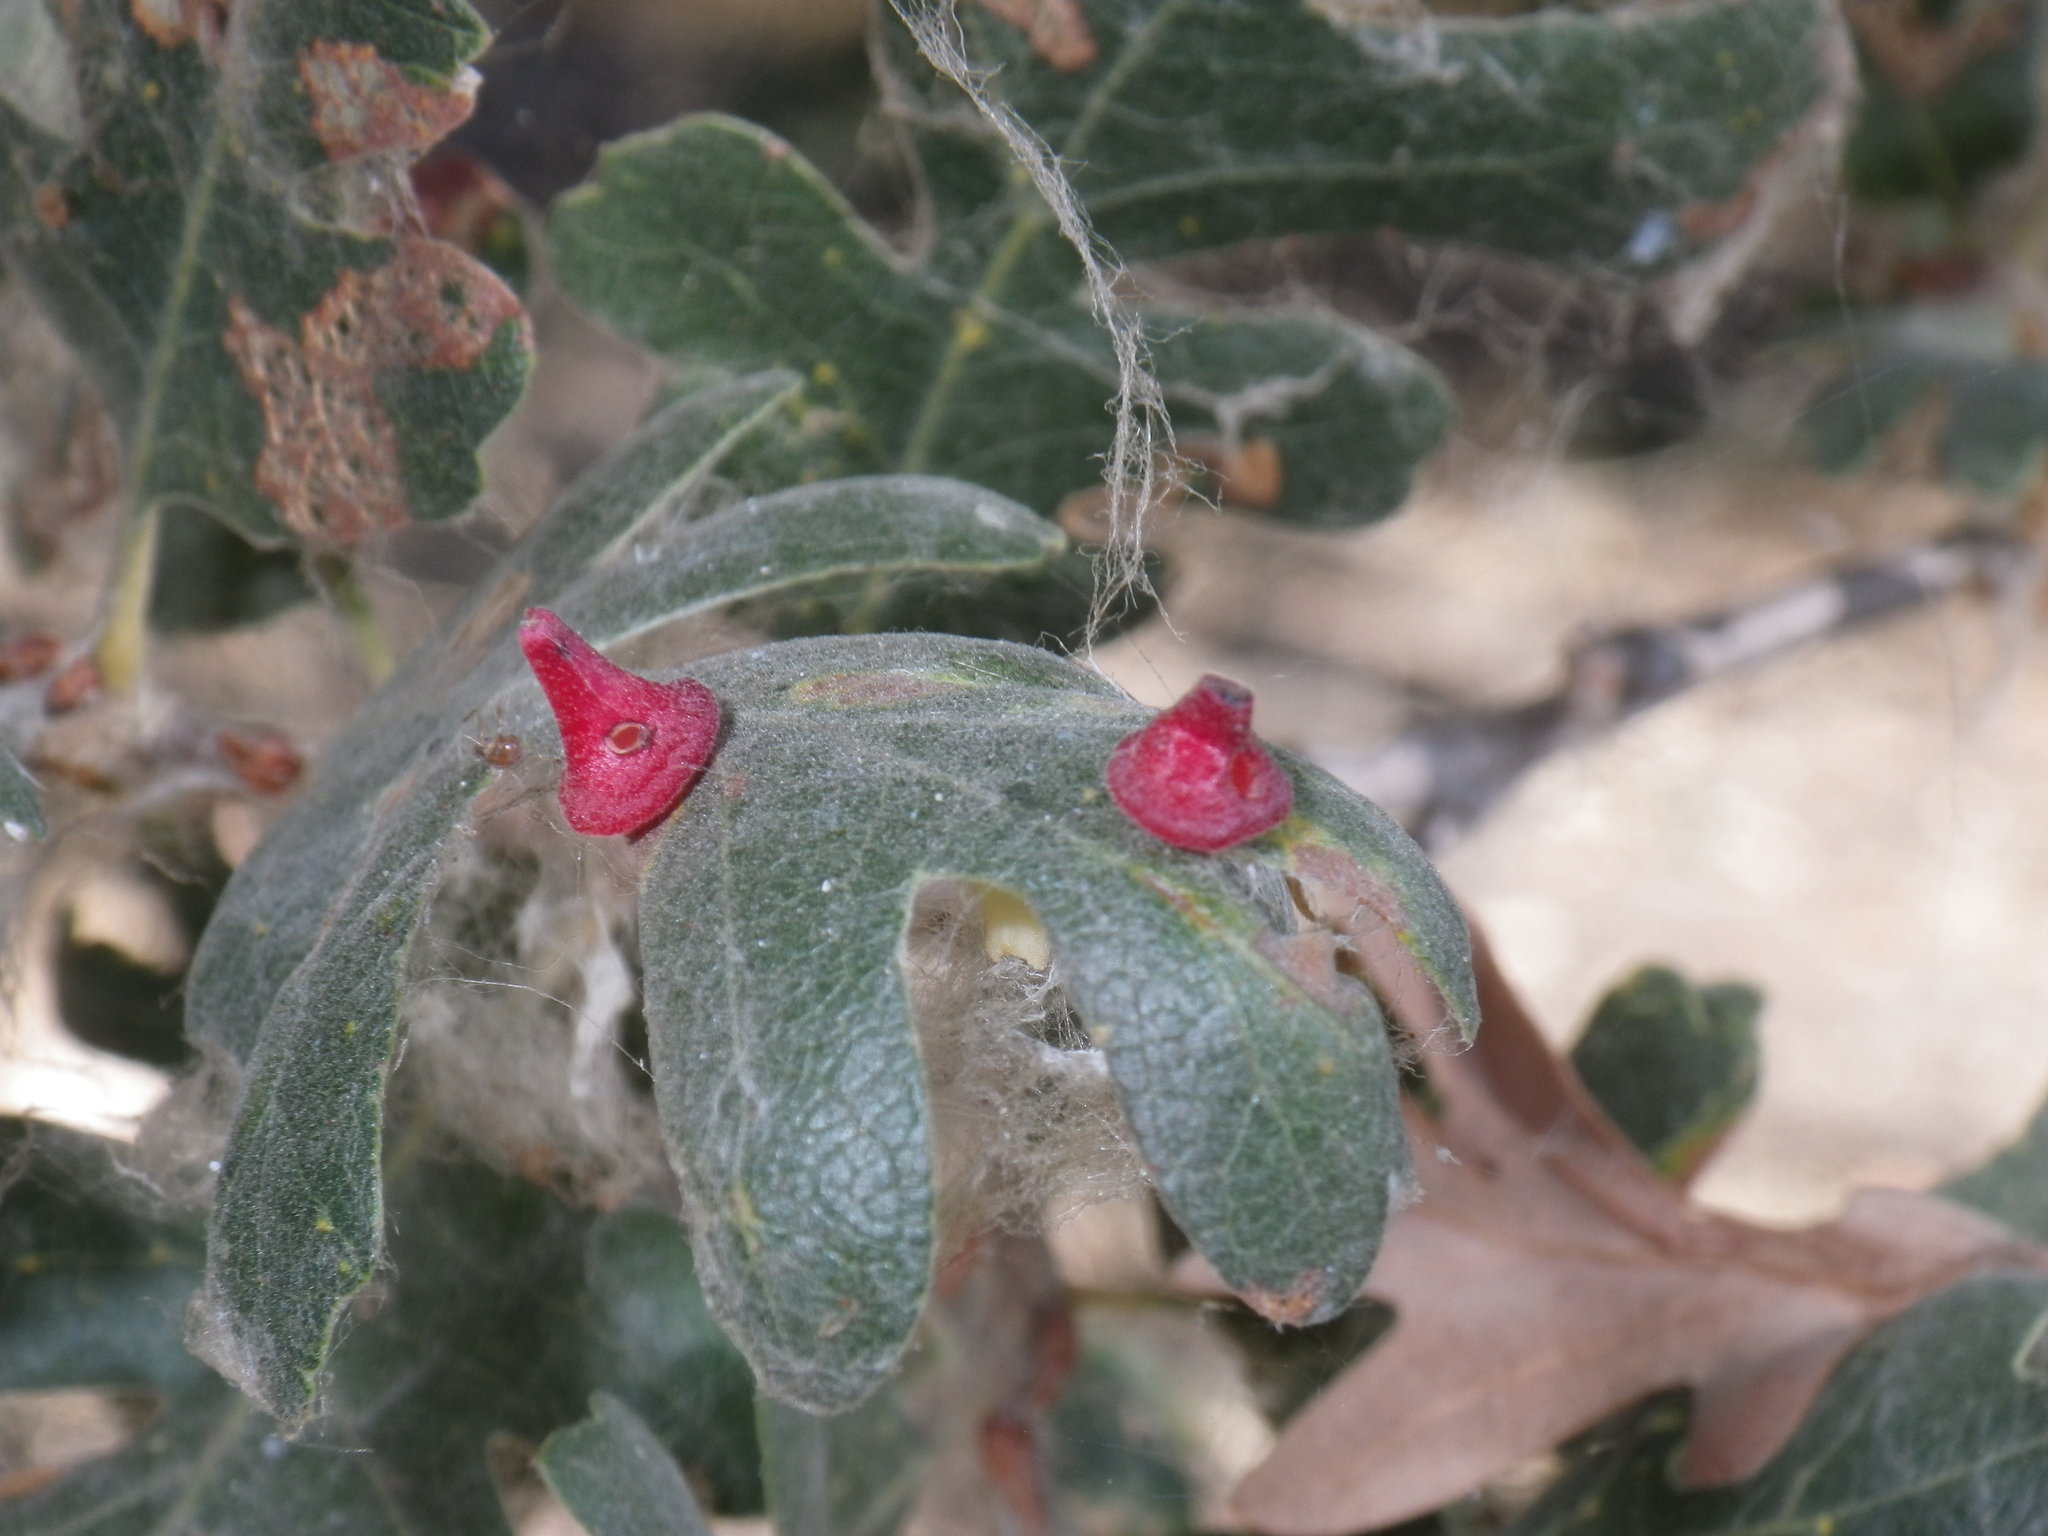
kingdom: Animalia
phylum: Arthropoda
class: Insecta
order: Hymenoptera
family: Cynipidae
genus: Andricus
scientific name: Andricus
